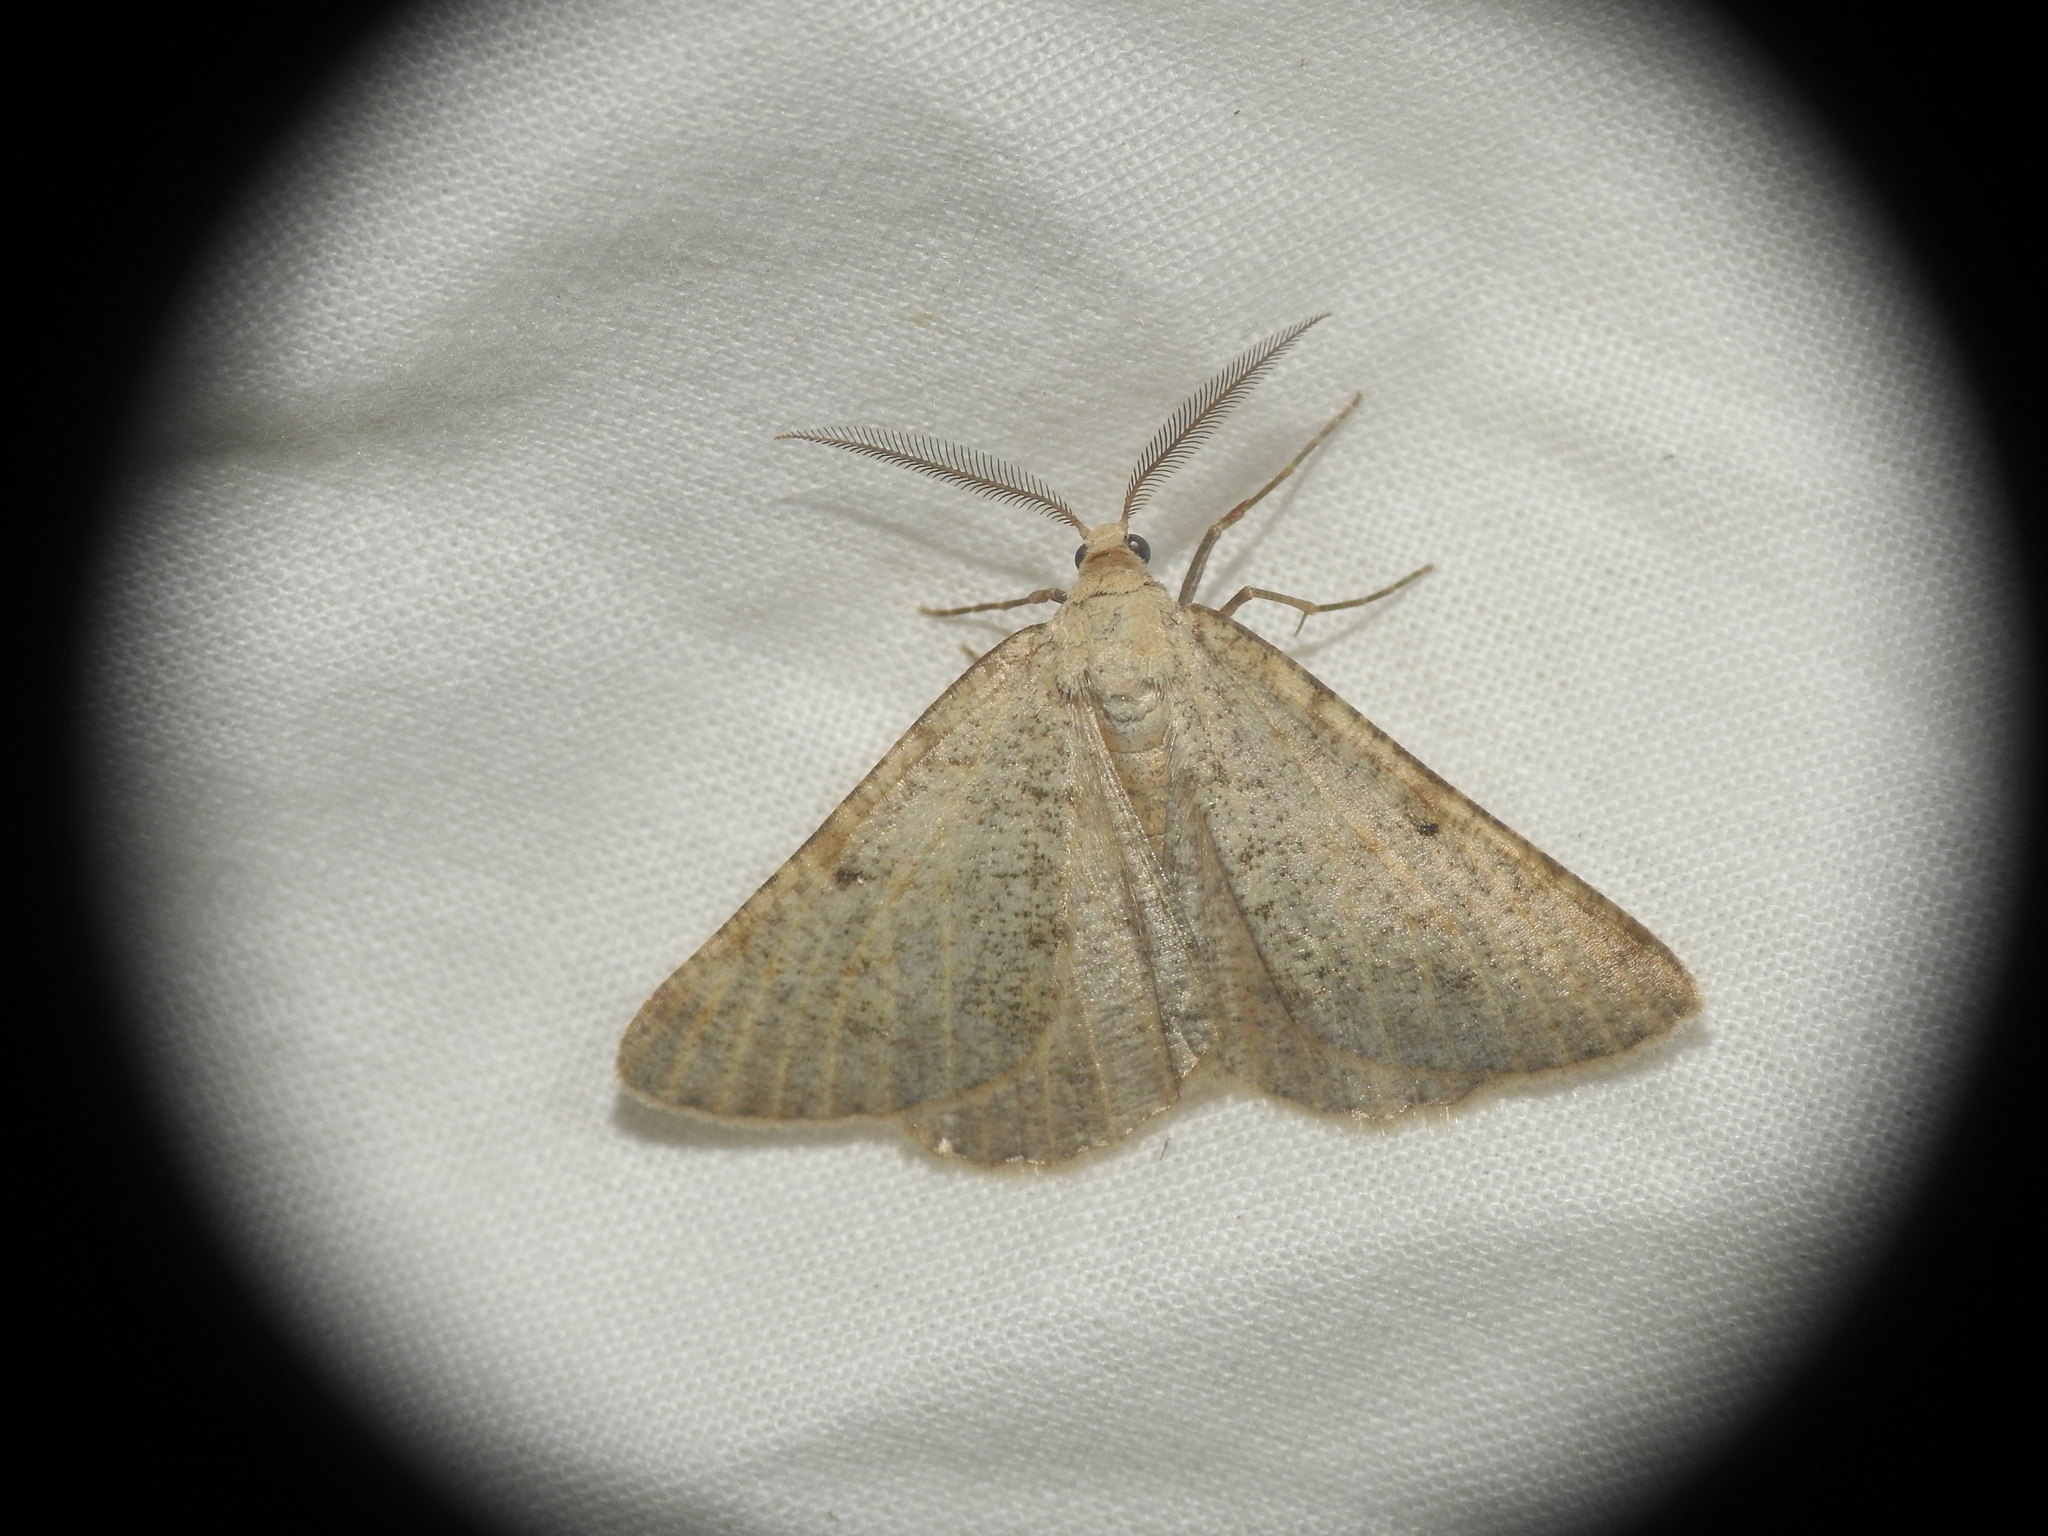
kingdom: Animalia
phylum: Arthropoda
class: Insecta
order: Lepidoptera
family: Geometridae
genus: Isturgia
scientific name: Isturgia miniosaria
